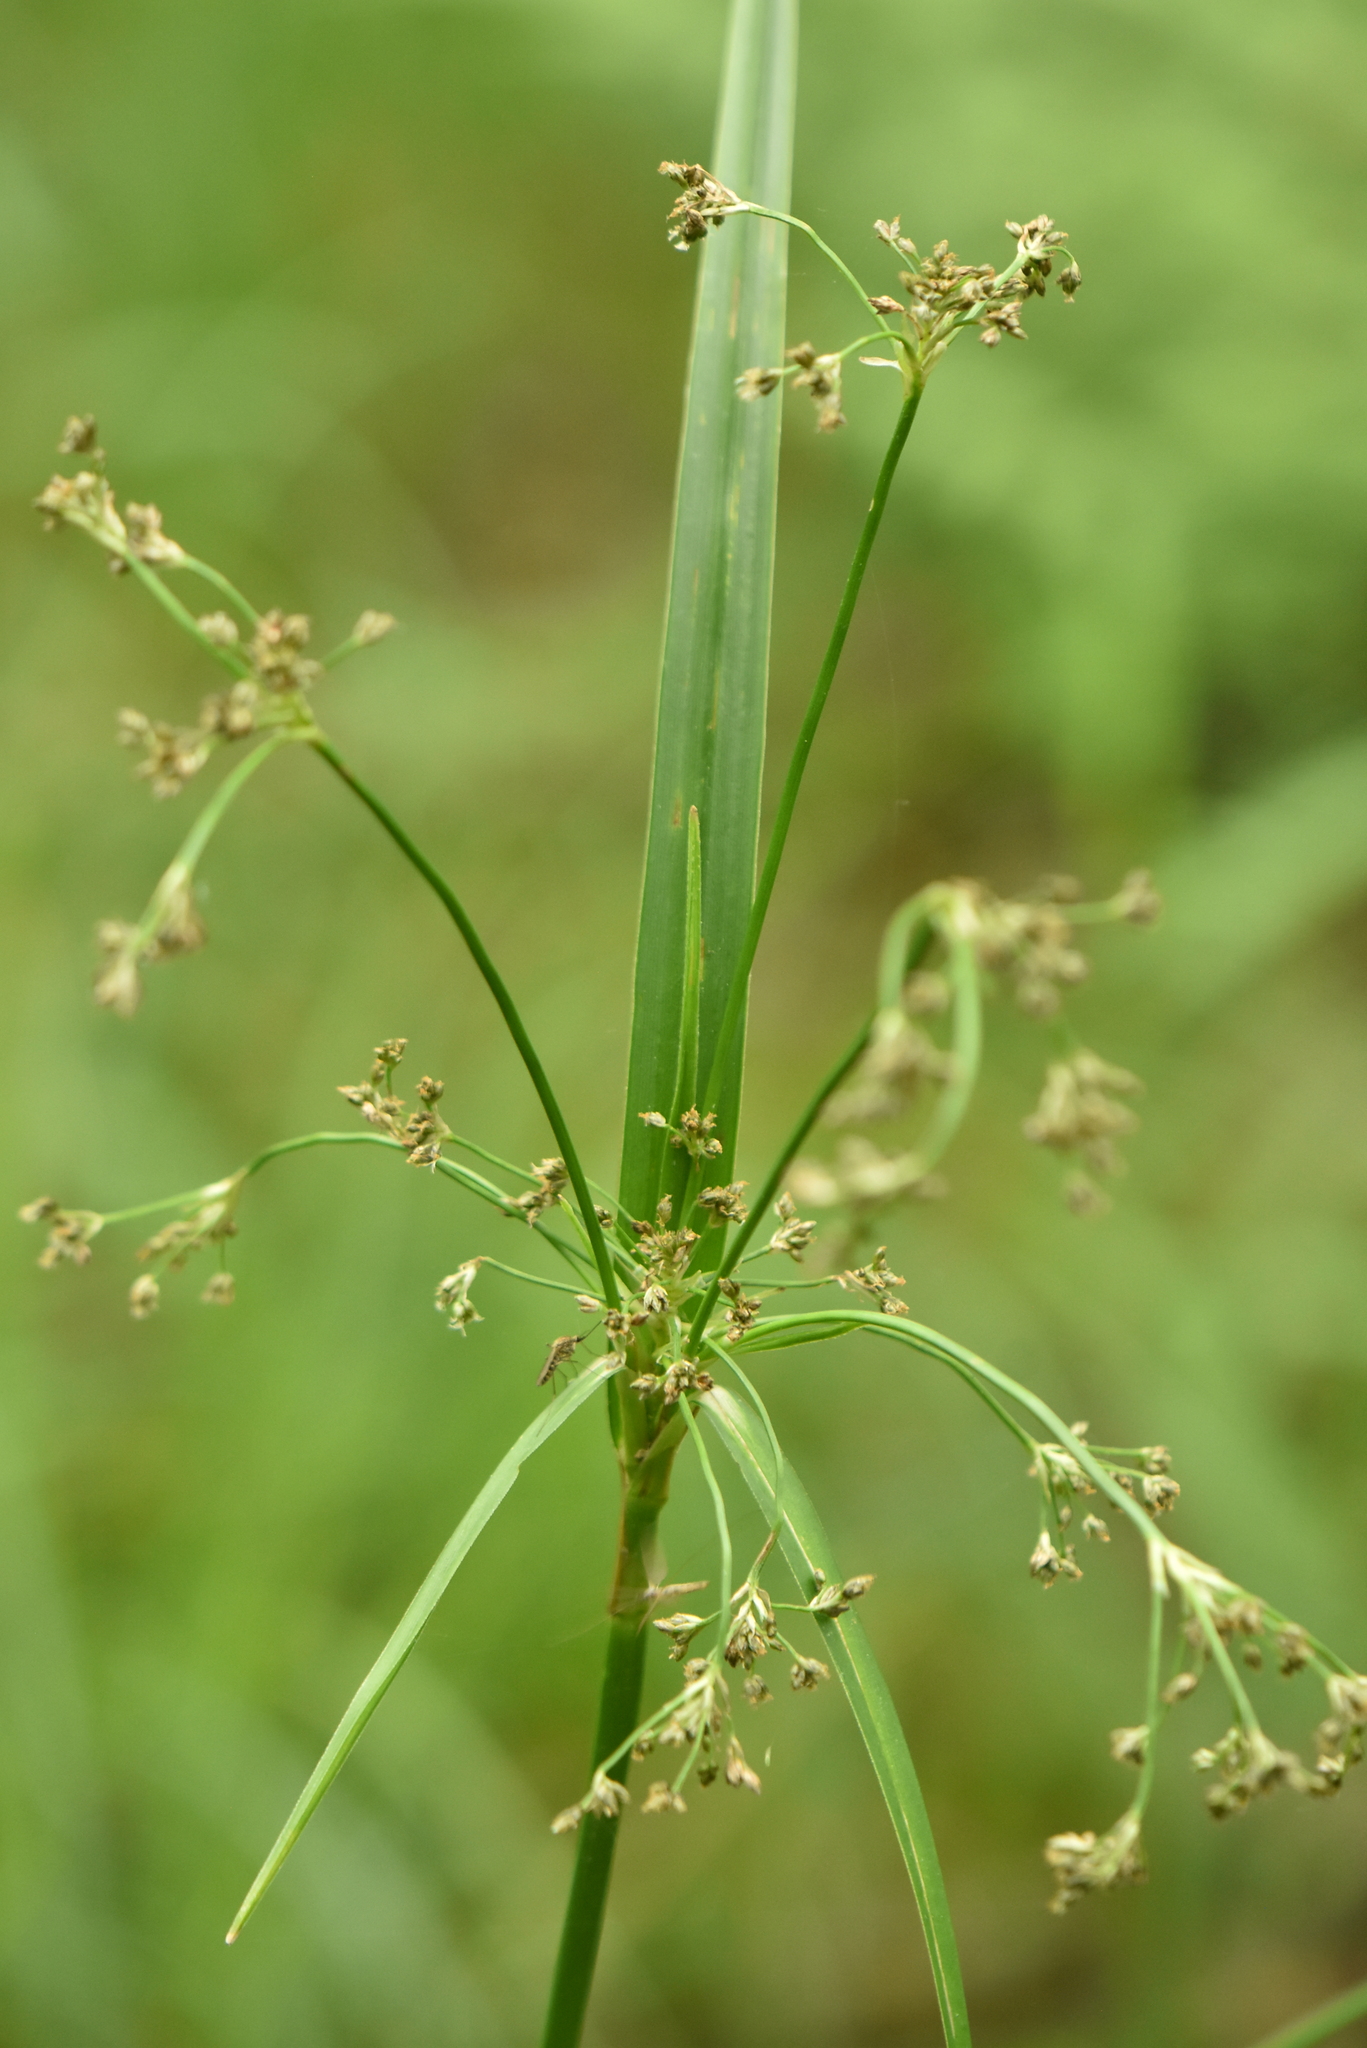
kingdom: Plantae
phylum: Tracheophyta
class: Liliopsida
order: Poales
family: Cyperaceae
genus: Scirpus
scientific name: Scirpus sylvaticus
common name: Wood club-rush
